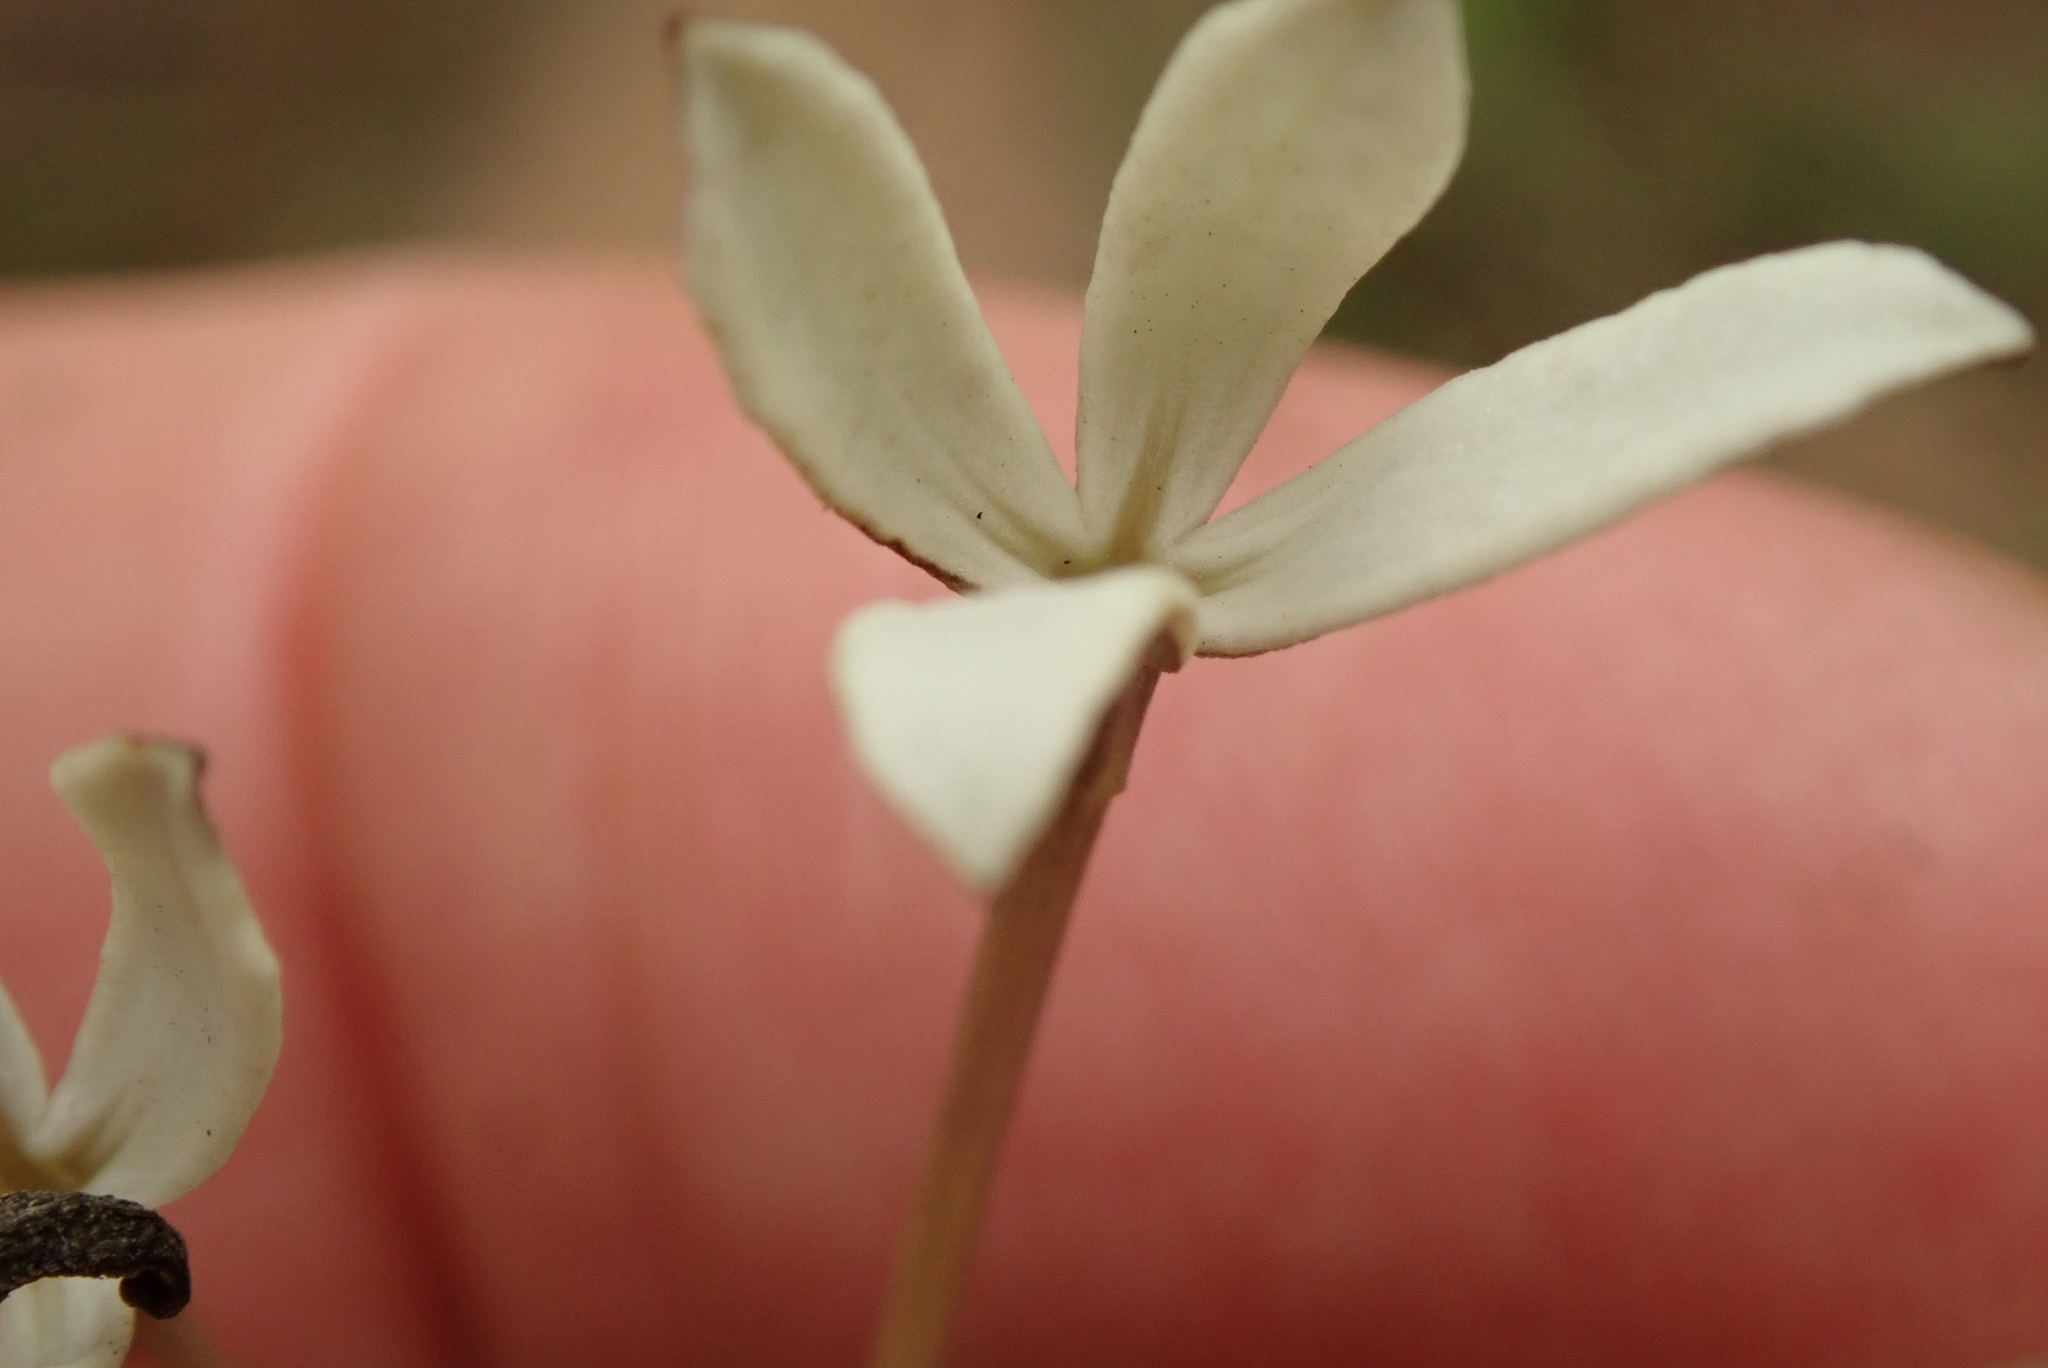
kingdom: Plantae
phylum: Tracheophyta
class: Magnoliopsida
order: Gentianales
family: Rubiaceae
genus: Kohautia
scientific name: Kohautia amatymbica
